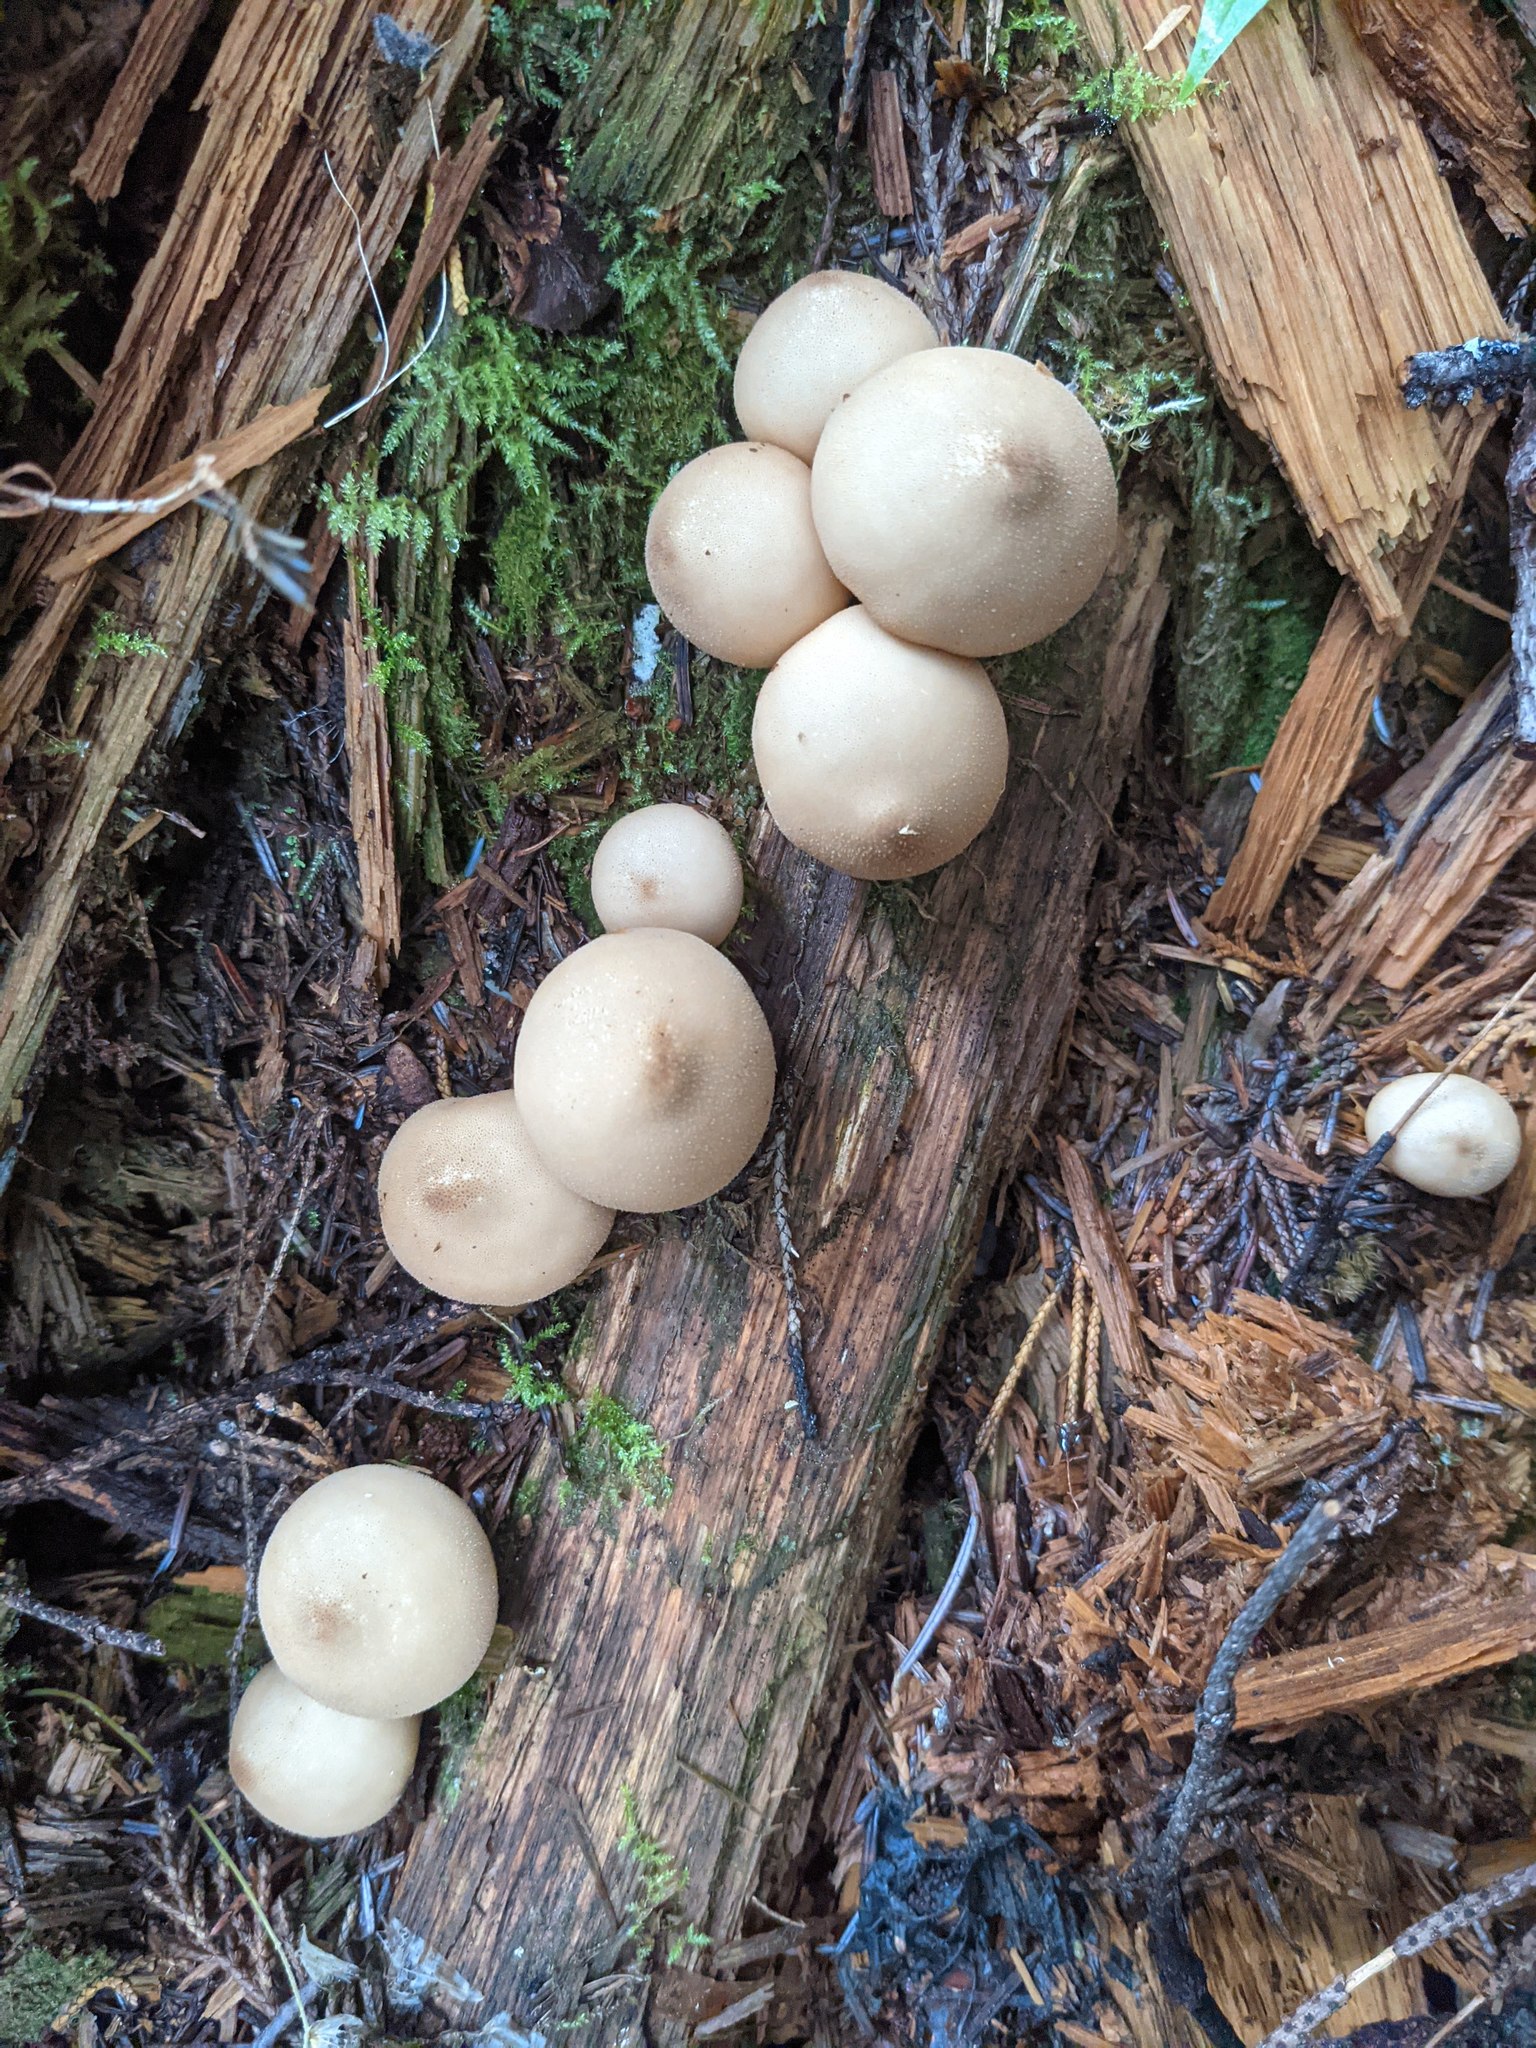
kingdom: Fungi
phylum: Basidiomycota
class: Agaricomycetes
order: Agaricales
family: Lycoperdaceae
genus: Apioperdon
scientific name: Apioperdon pyriforme
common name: Pear-shaped puffball
